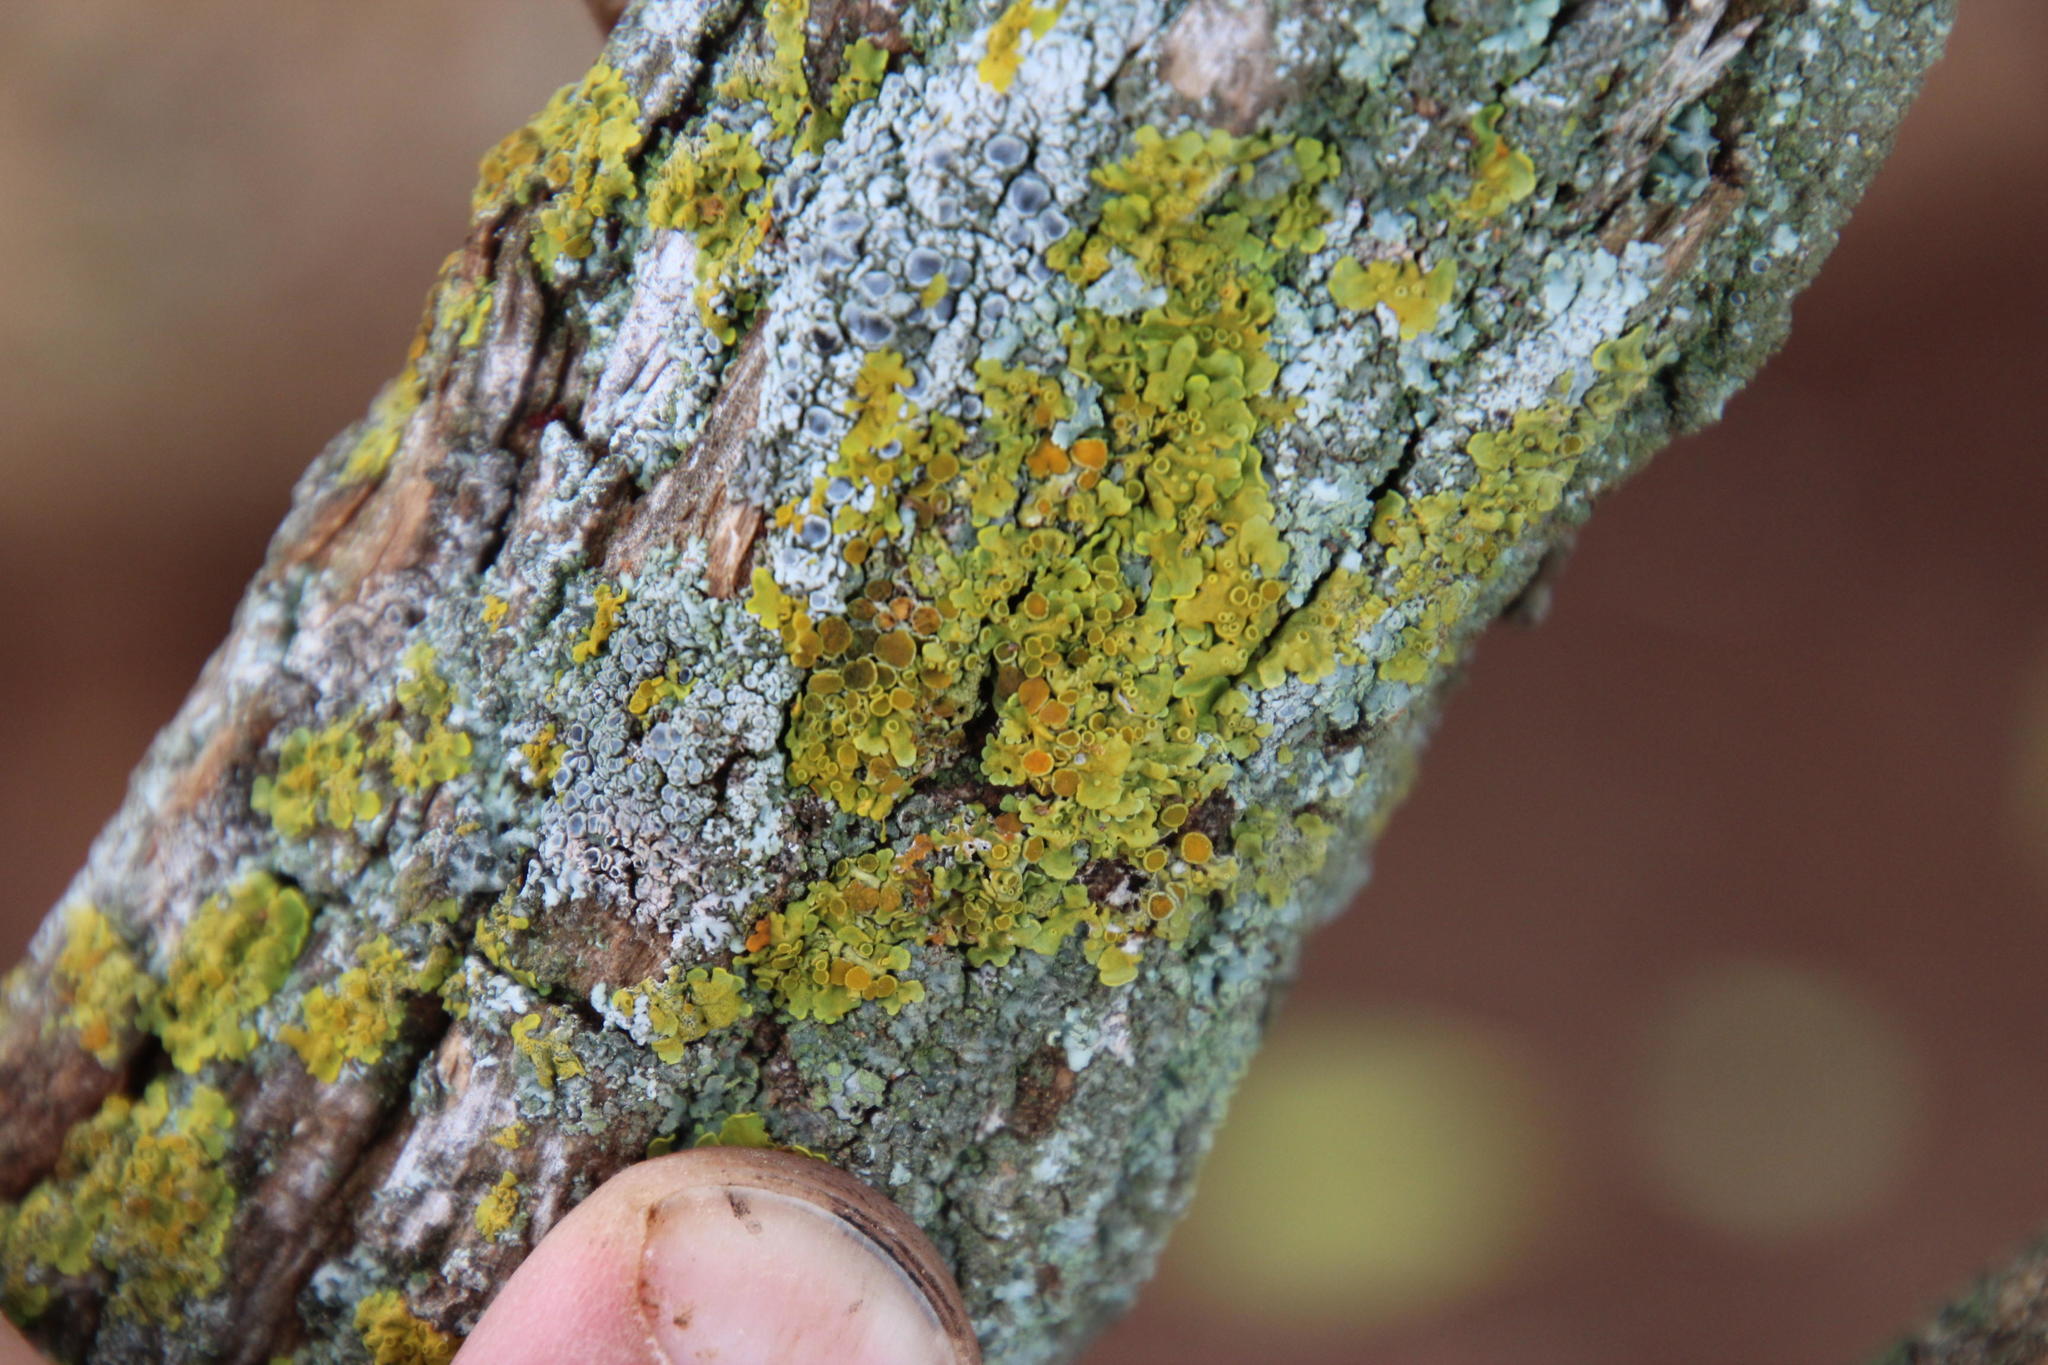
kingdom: Fungi
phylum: Ascomycota
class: Lecanoromycetes
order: Teloschistales
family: Teloschistaceae
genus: Xanthoria
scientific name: Xanthoria parietina
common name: Common orange lichen
